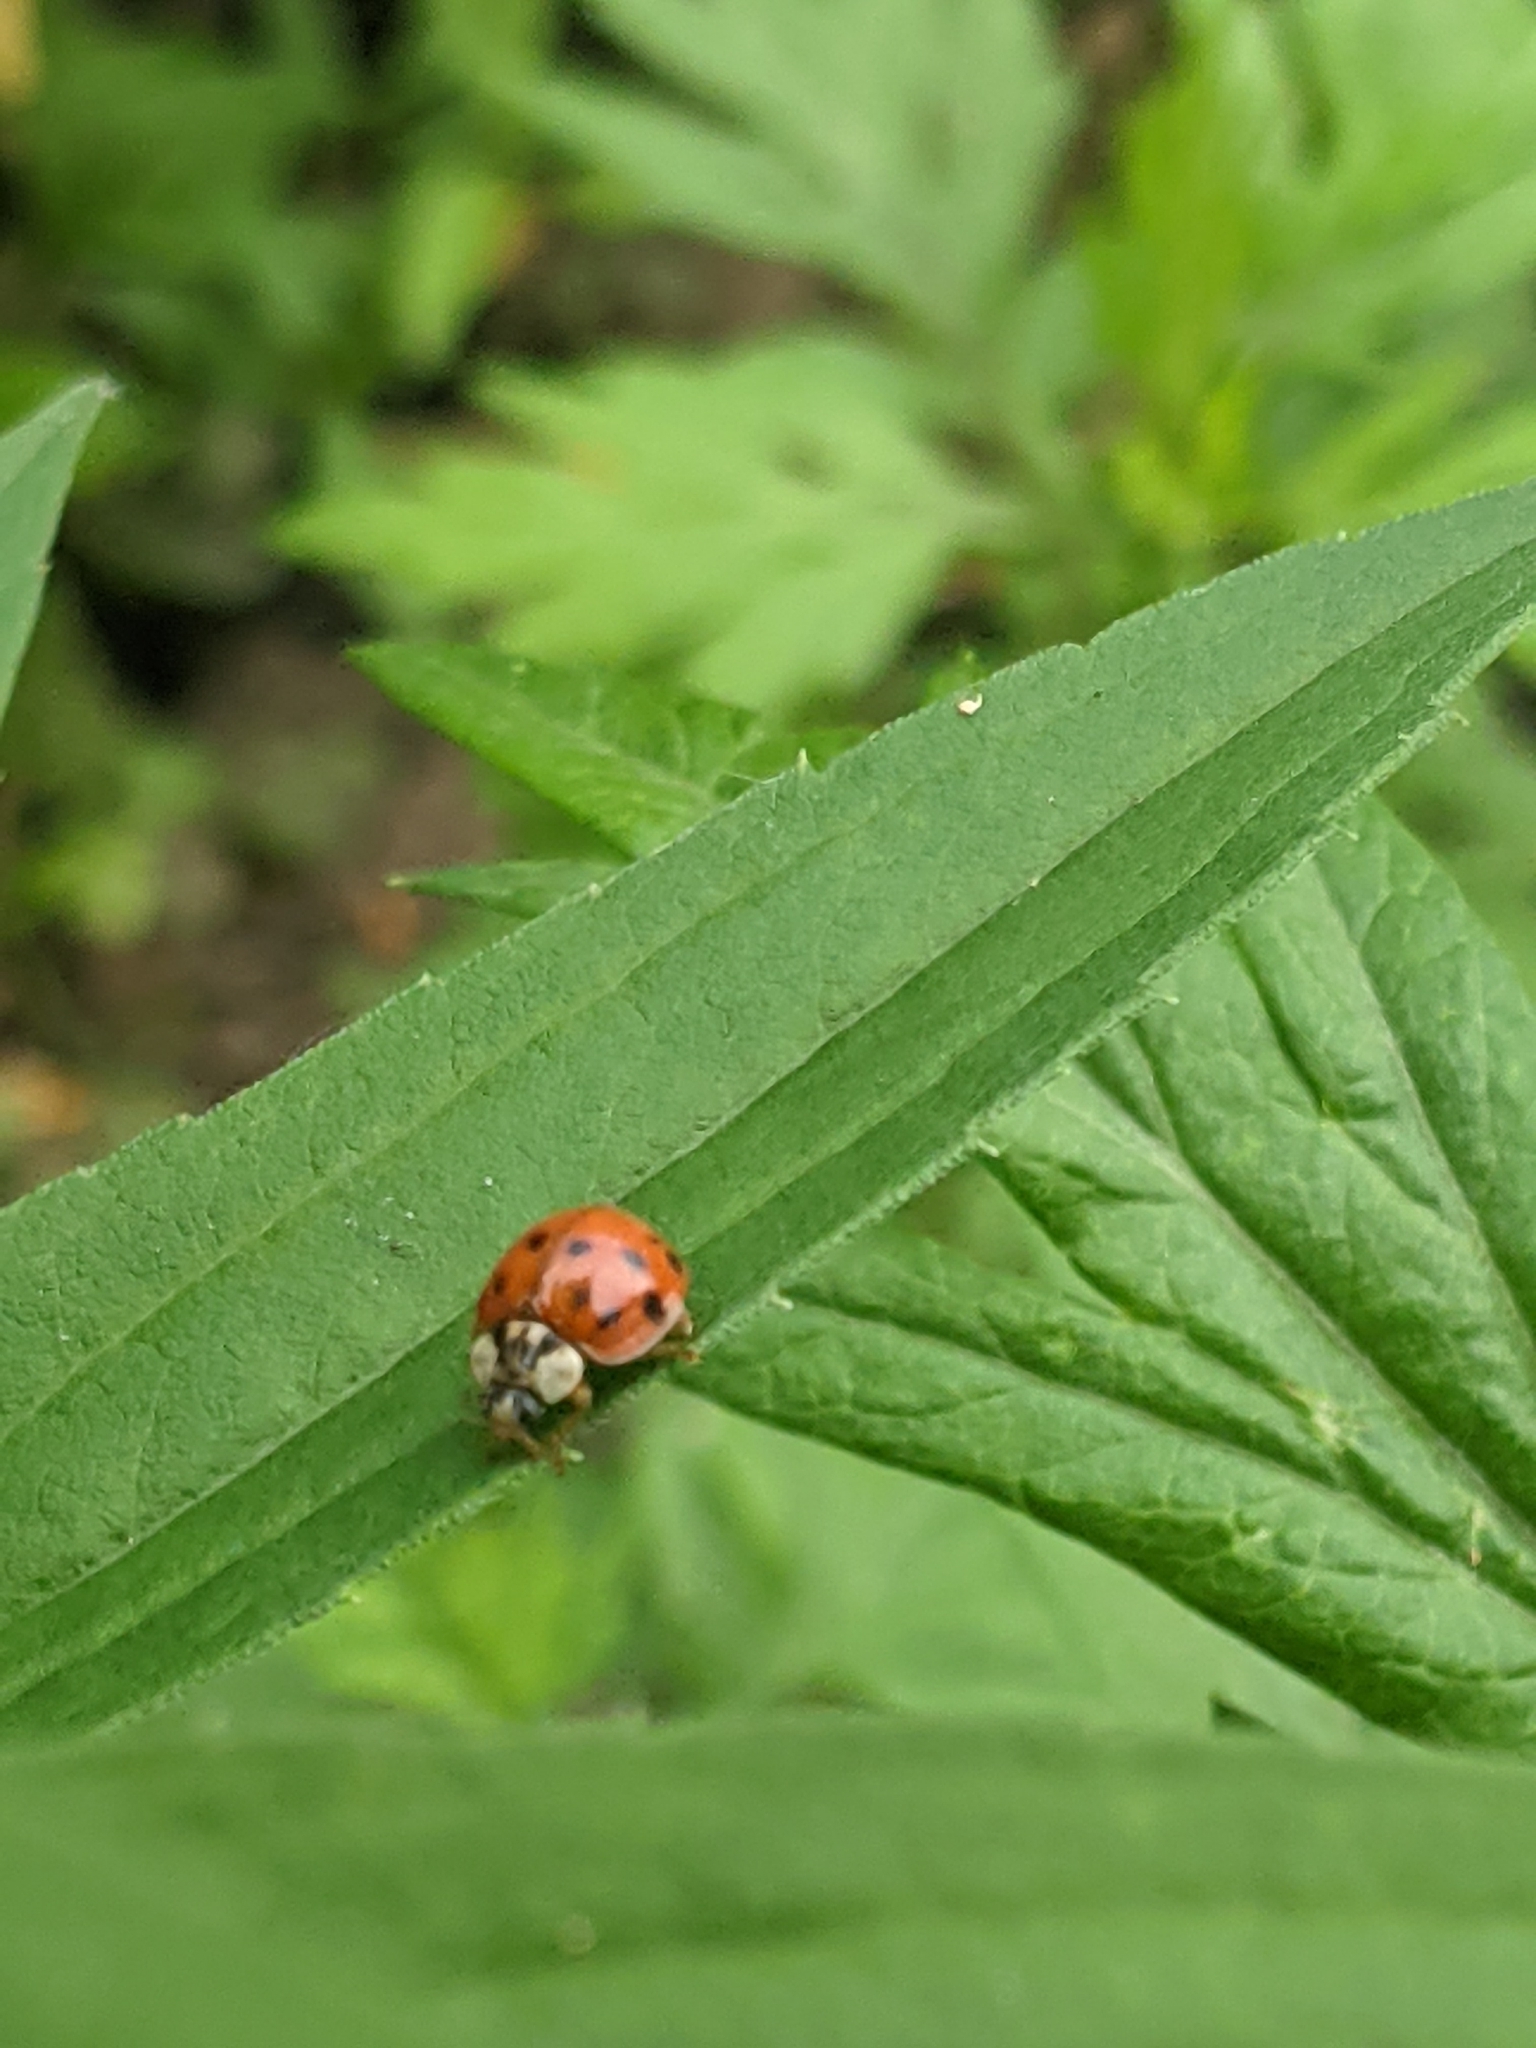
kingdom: Animalia
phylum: Arthropoda
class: Insecta
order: Coleoptera
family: Coccinellidae
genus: Harmonia
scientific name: Harmonia axyridis
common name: Harlequin ladybird
